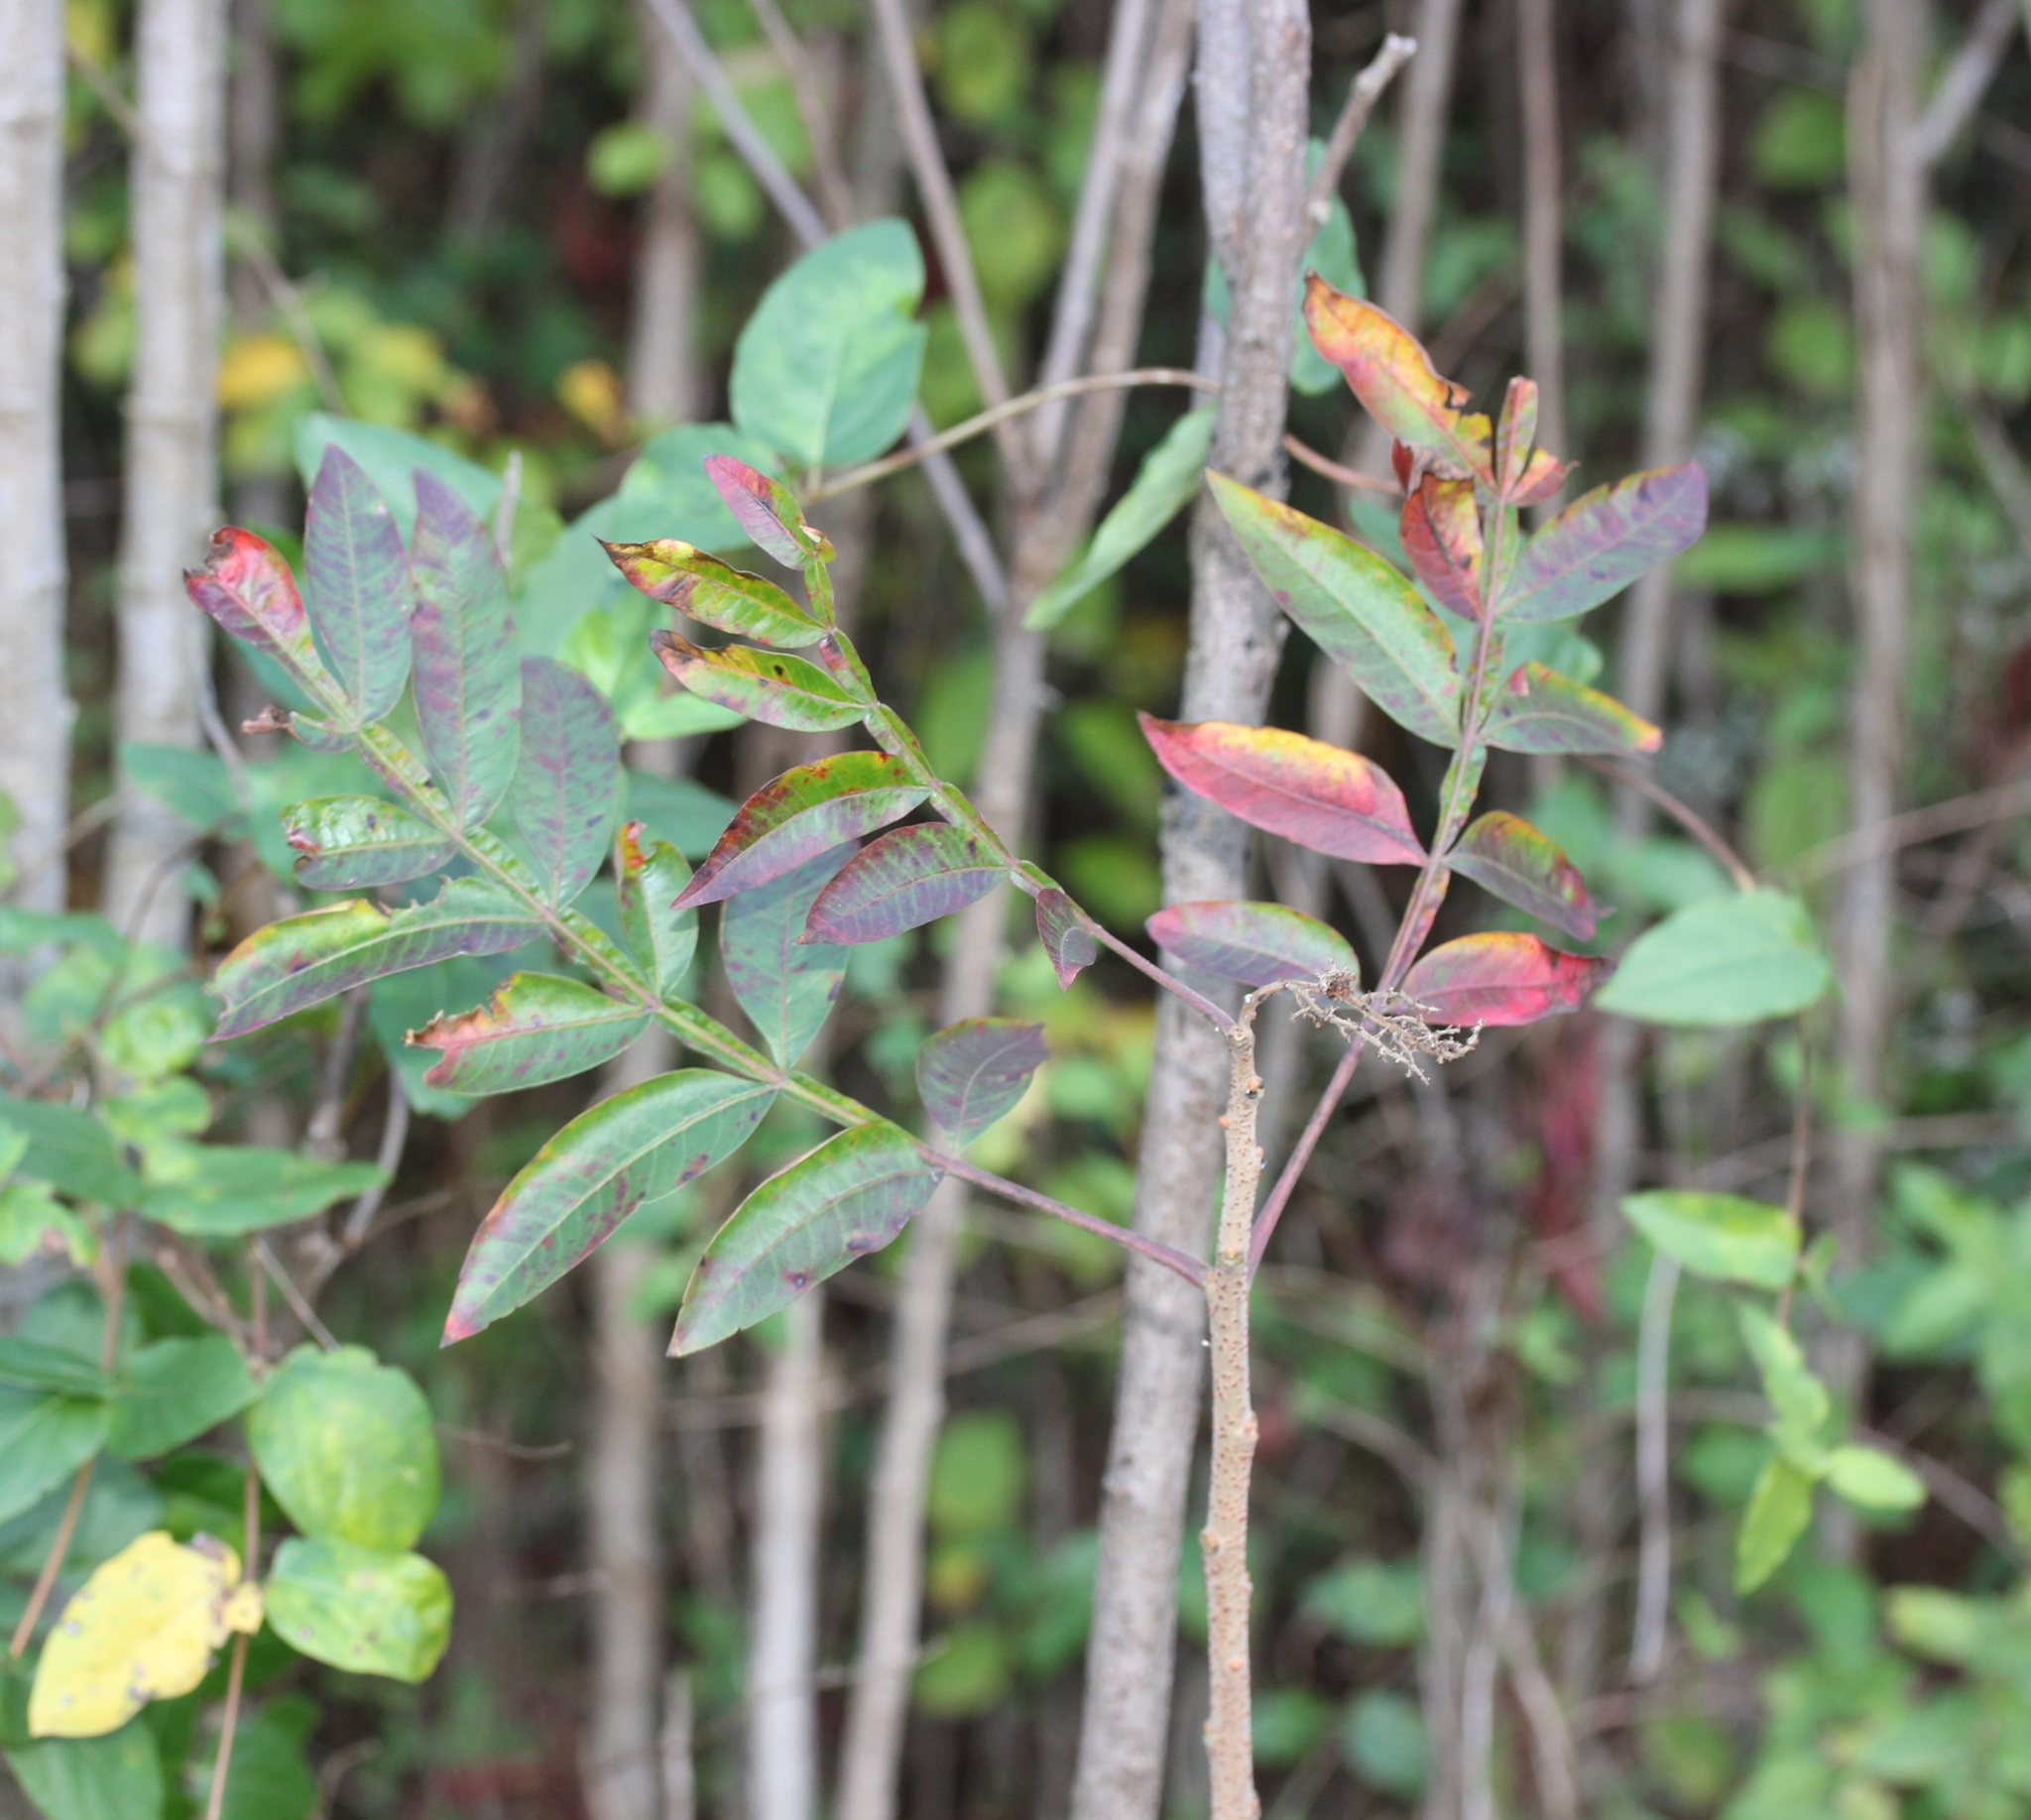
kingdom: Plantae
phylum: Tracheophyta
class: Magnoliopsida
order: Sapindales
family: Anacardiaceae
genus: Rhus
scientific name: Rhus copallina
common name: Shining sumac
